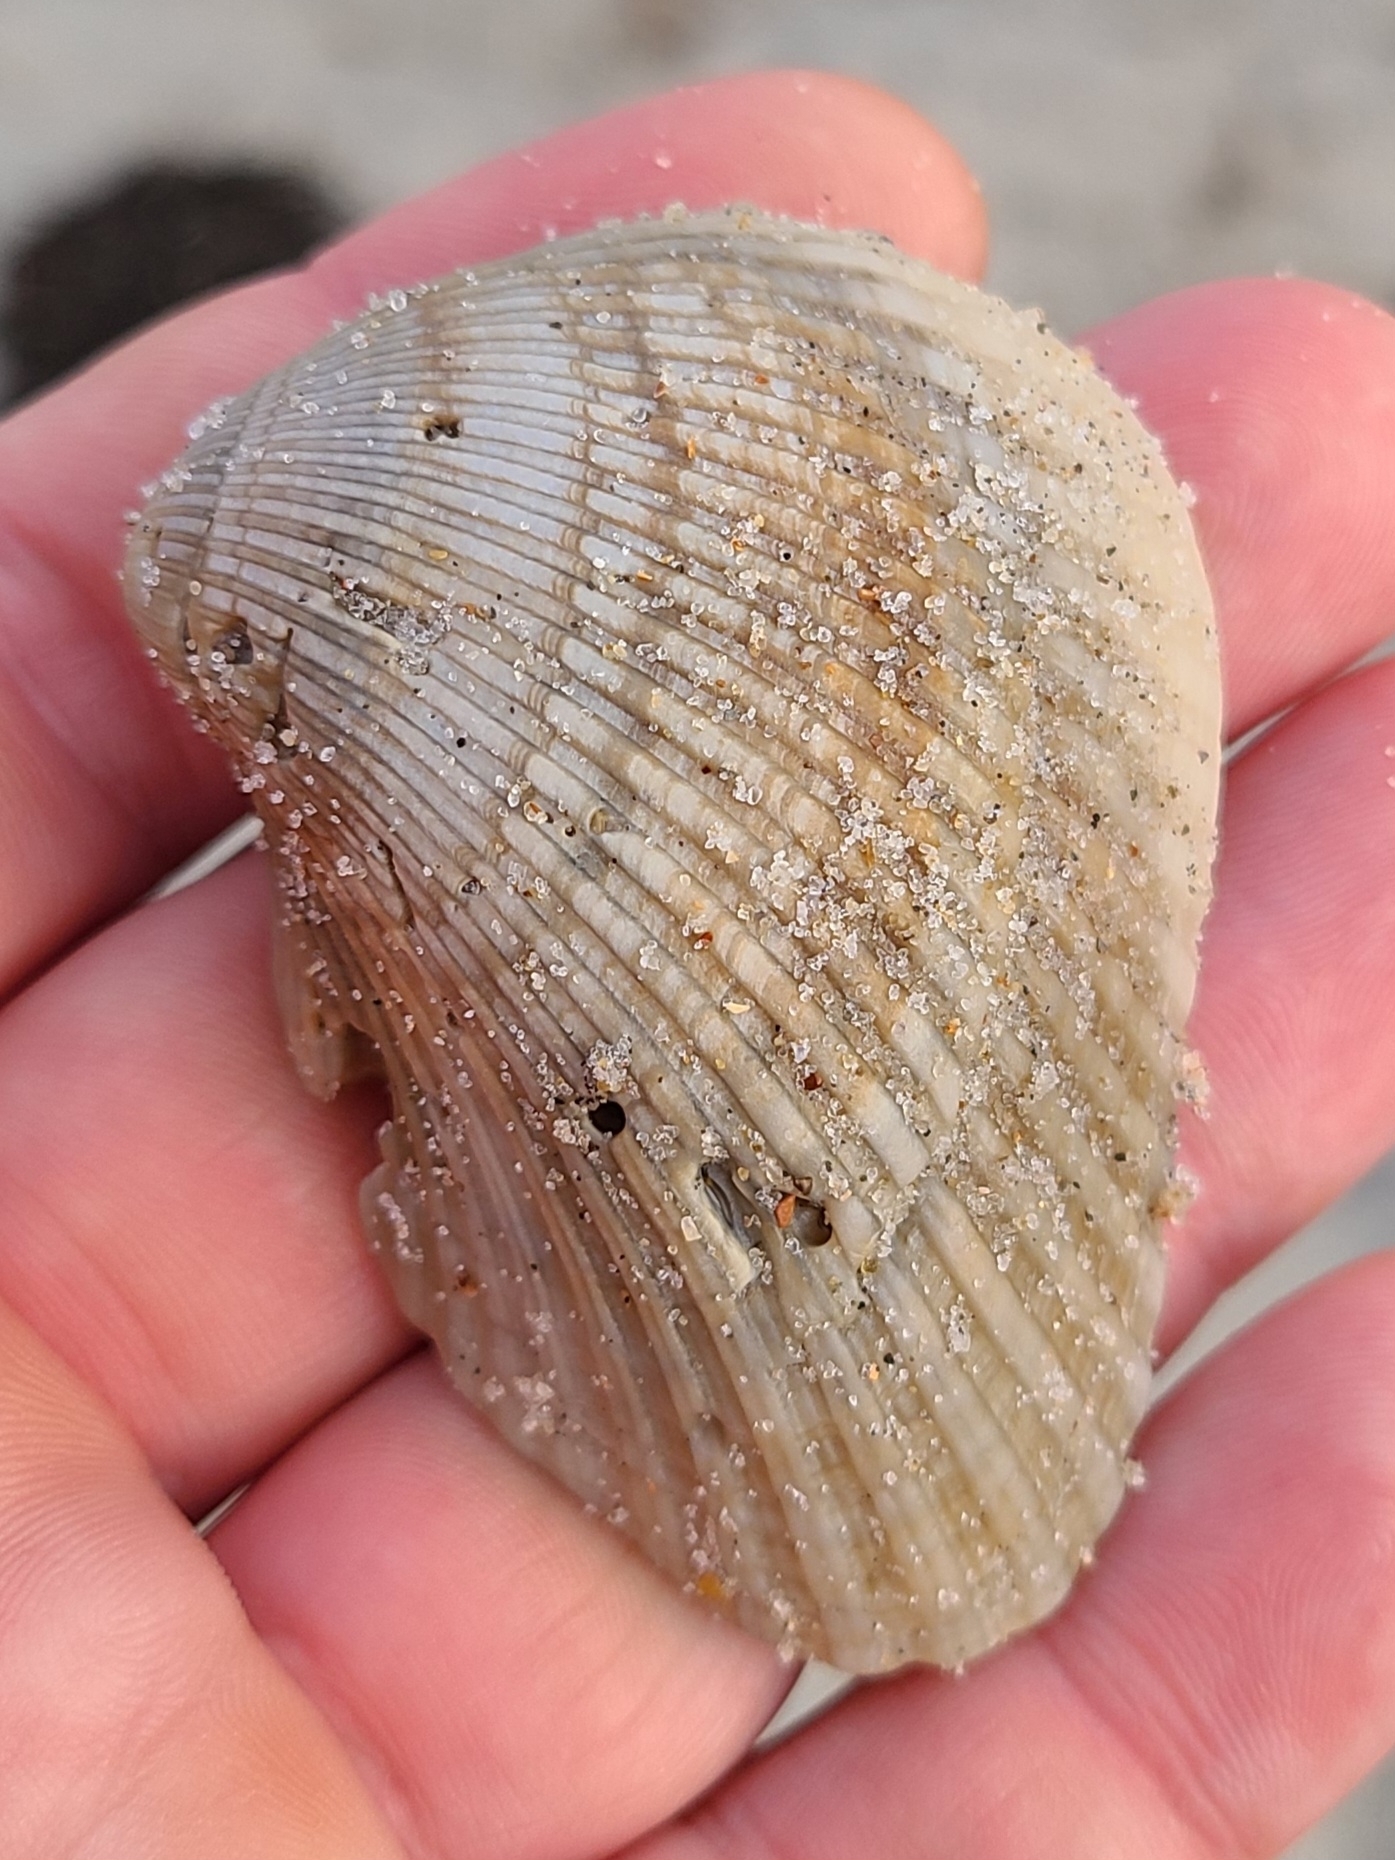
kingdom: Animalia
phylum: Mollusca
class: Bivalvia
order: Arcida
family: Noetiidae
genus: Noetia
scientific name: Noetia ponderosa
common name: Ponderous ark
